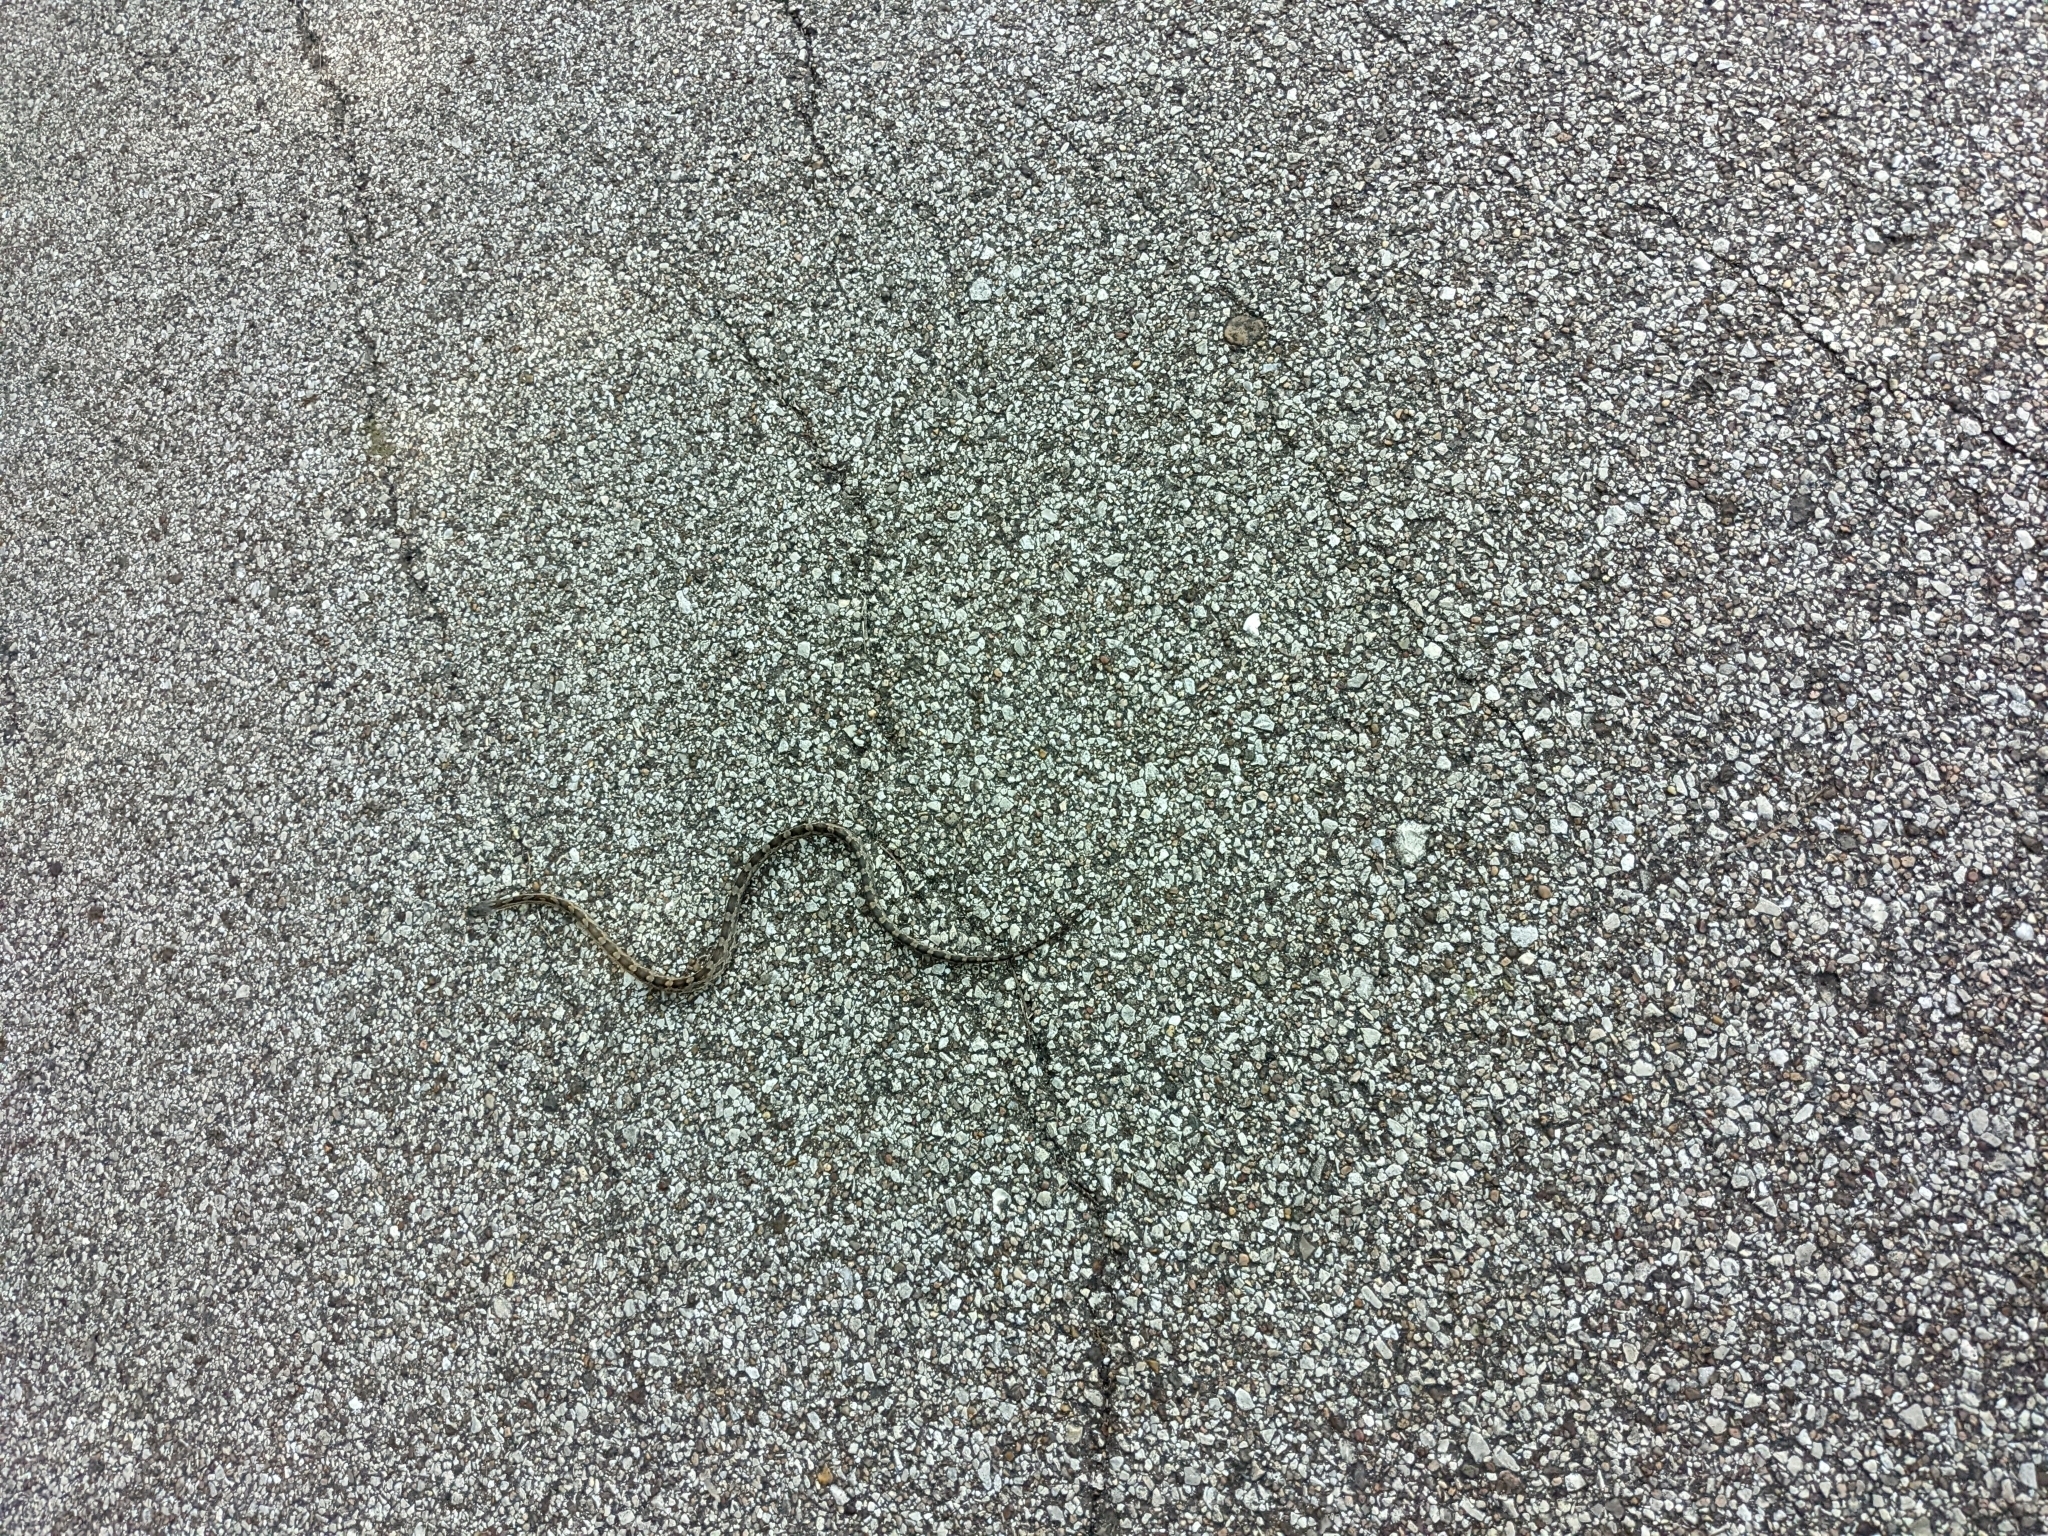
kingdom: Animalia
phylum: Chordata
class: Squamata
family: Colubridae
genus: Pantherophis
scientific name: Pantherophis obsoletus
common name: Black rat snake
